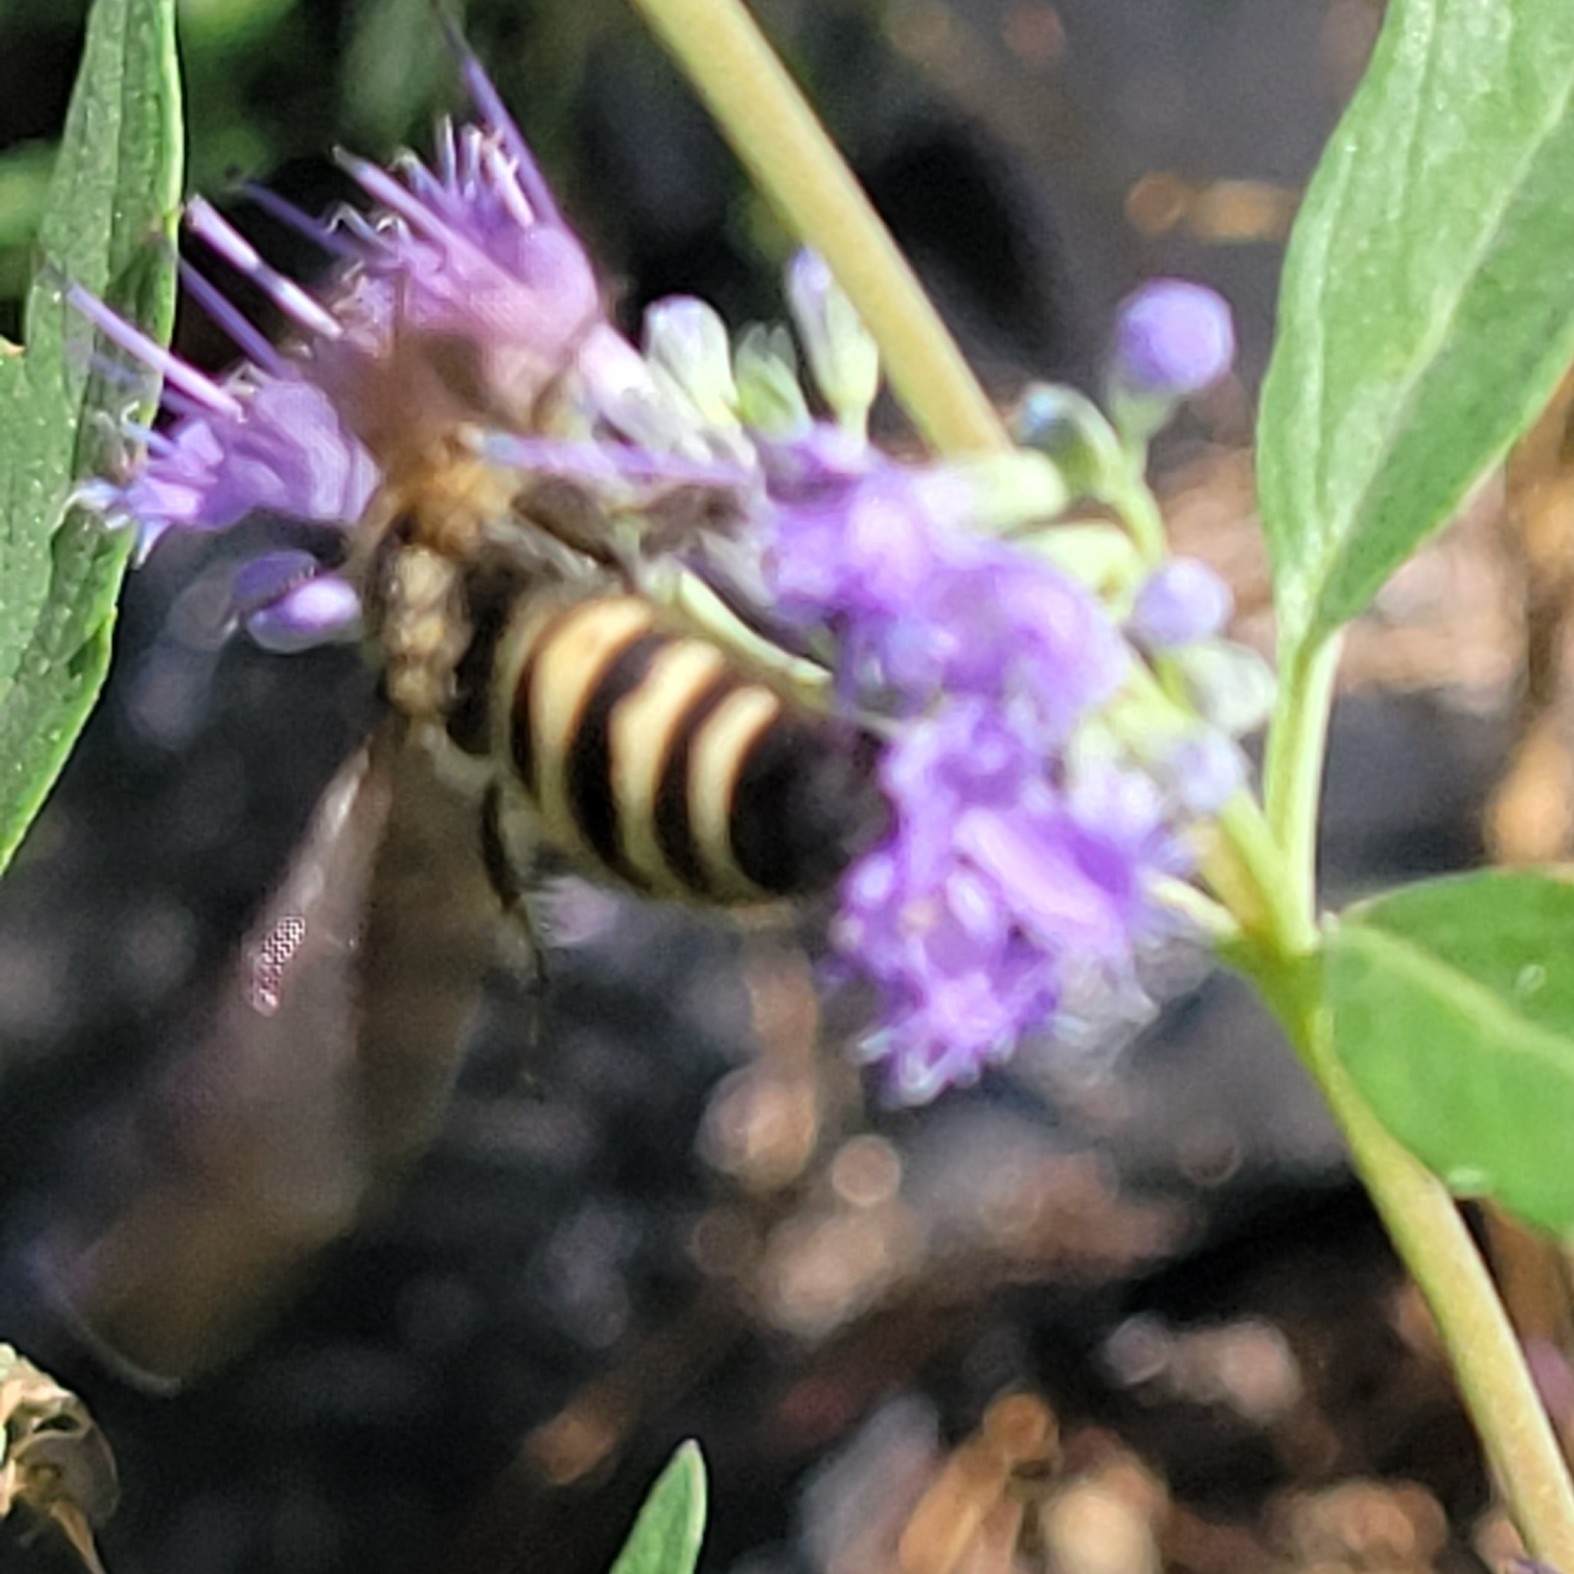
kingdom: Animalia
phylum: Arthropoda
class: Insecta
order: Hymenoptera
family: Scoliidae
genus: Dielis
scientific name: Dielis
